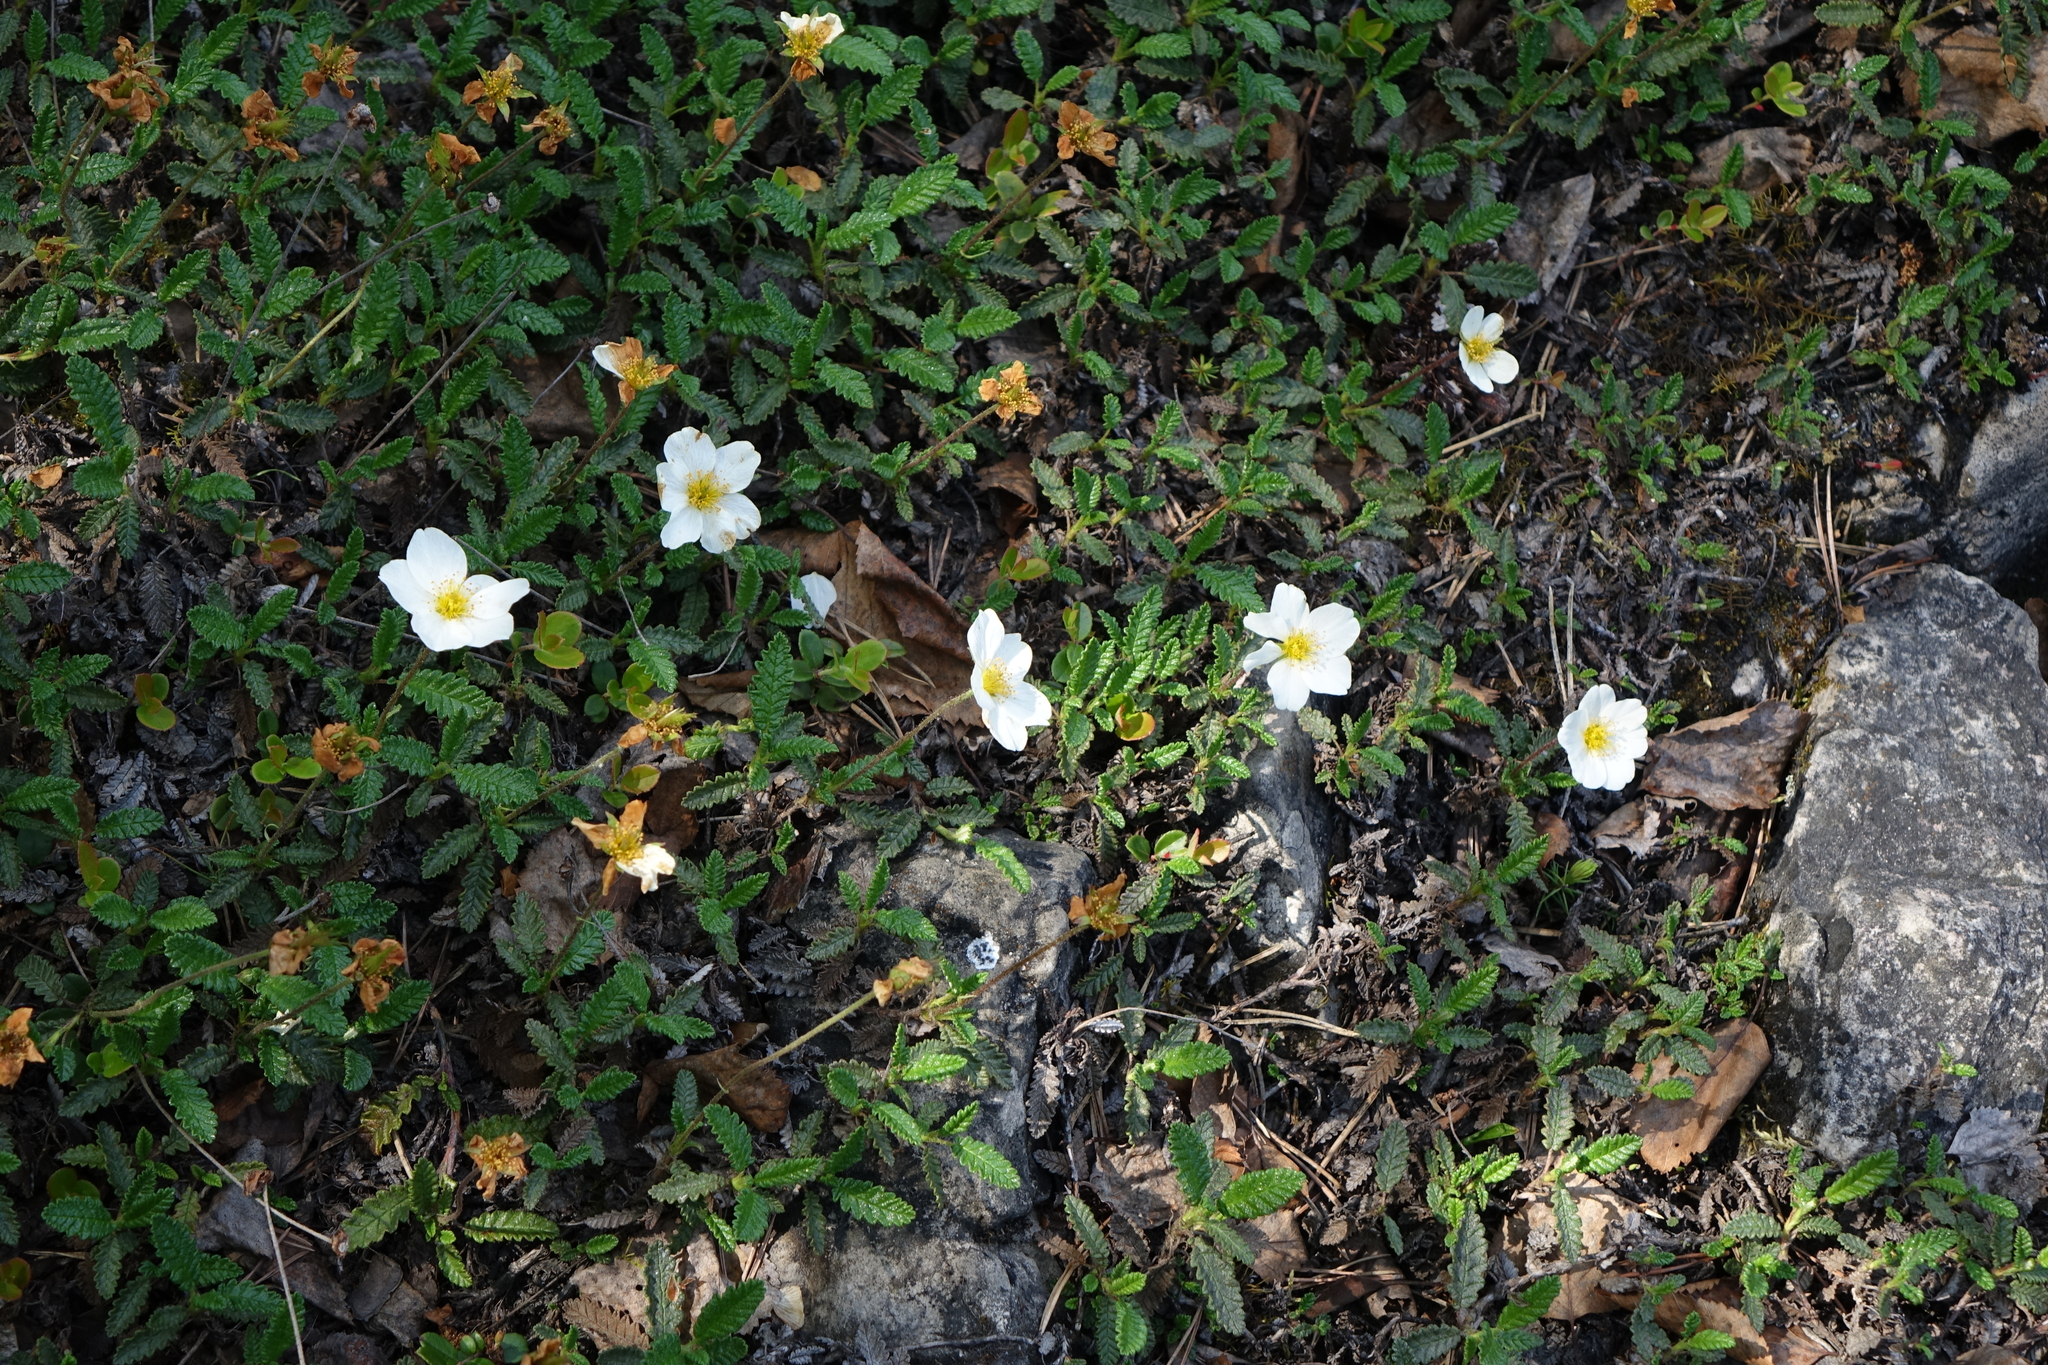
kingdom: Plantae
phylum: Tracheophyta
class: Magnoliopsida
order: Rosales
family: Rosaceae
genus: Dryas
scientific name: Dryas octopetala
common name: Eight-petal mountain-avens
